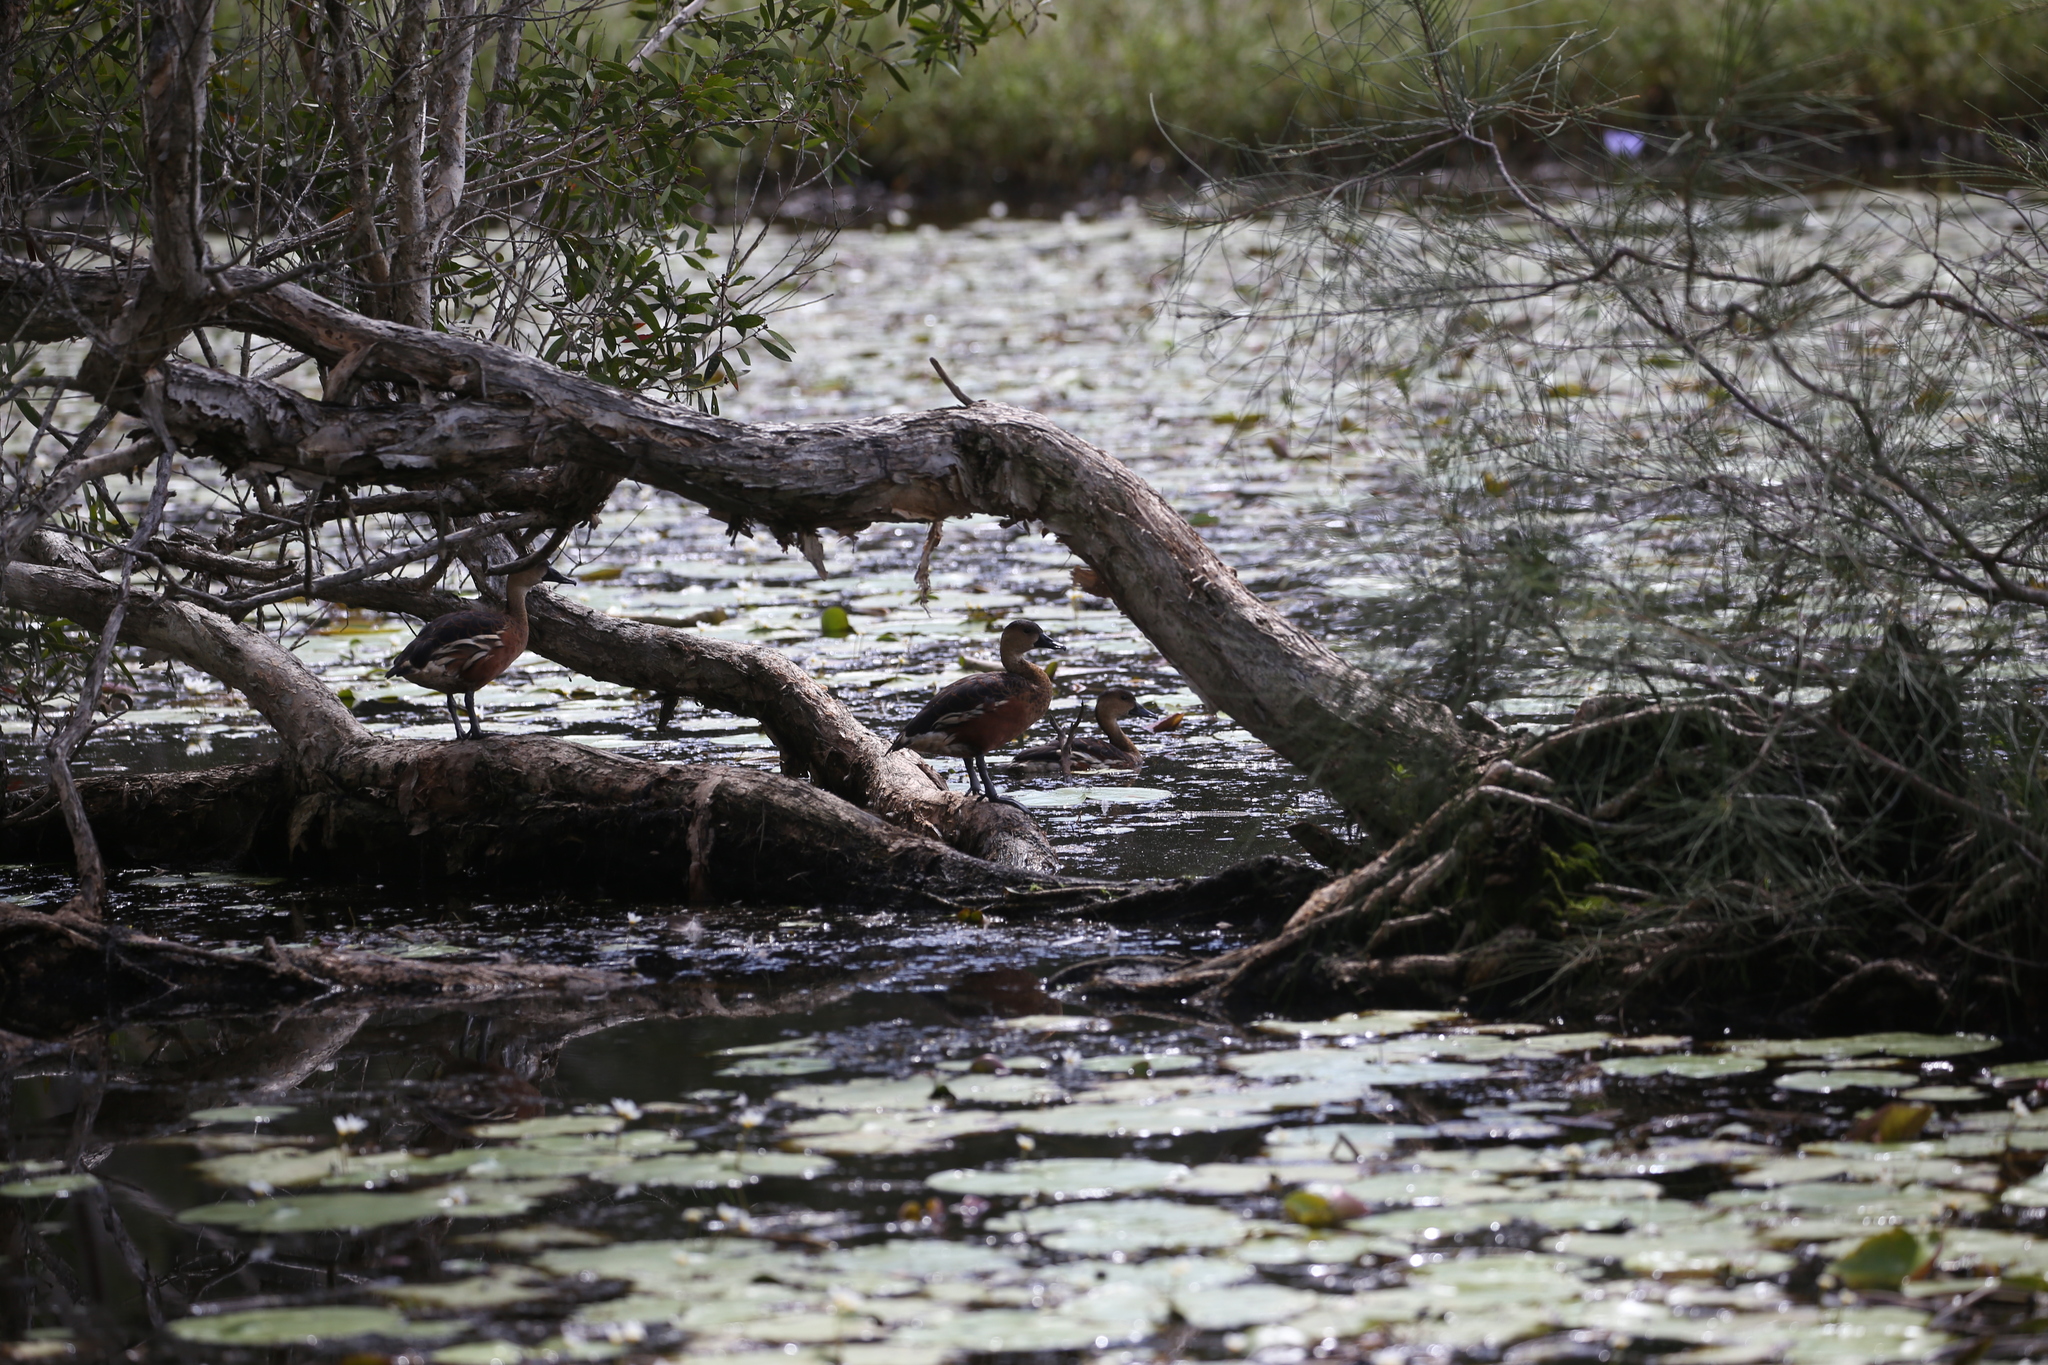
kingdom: Animalia
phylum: Chordata
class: Aves
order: Anseriformes
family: Anatidae
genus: Dendrocygna
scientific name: Dendrocygna arcuata
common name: Wandering whistling-duck
